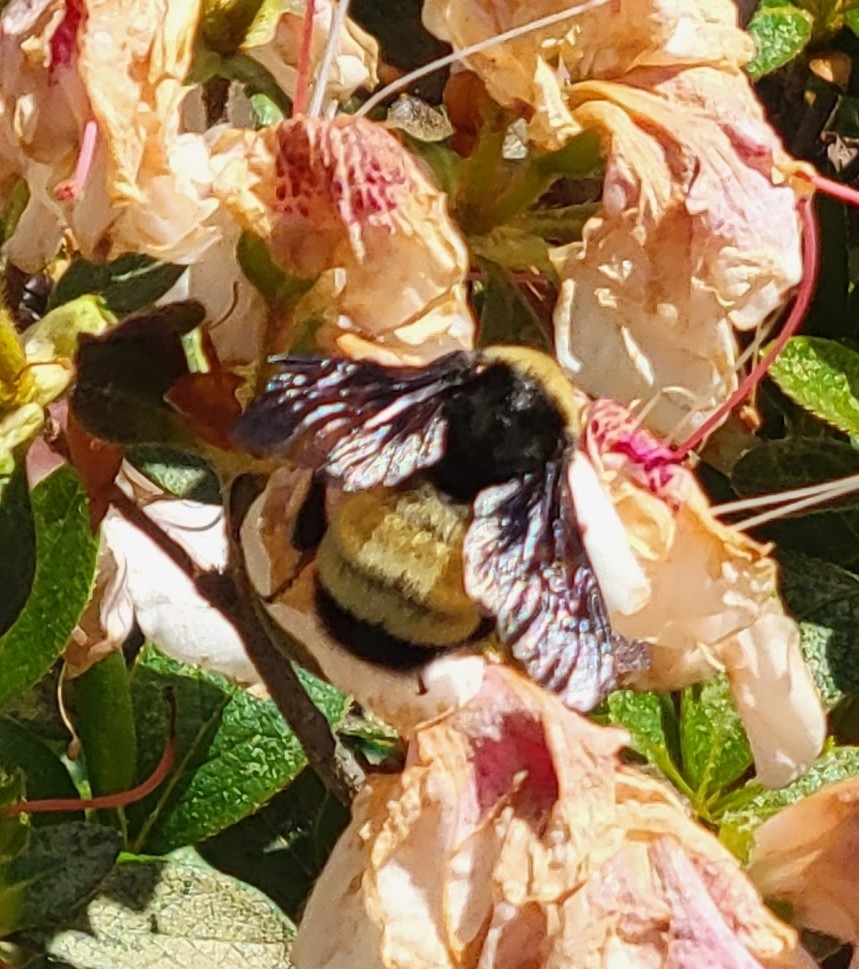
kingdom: Animalia
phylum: Arthropoda
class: Insecta
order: Hymenoptera
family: Apidae
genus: Bombus
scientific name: Bombus pensylvanicus
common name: Bumble bee
